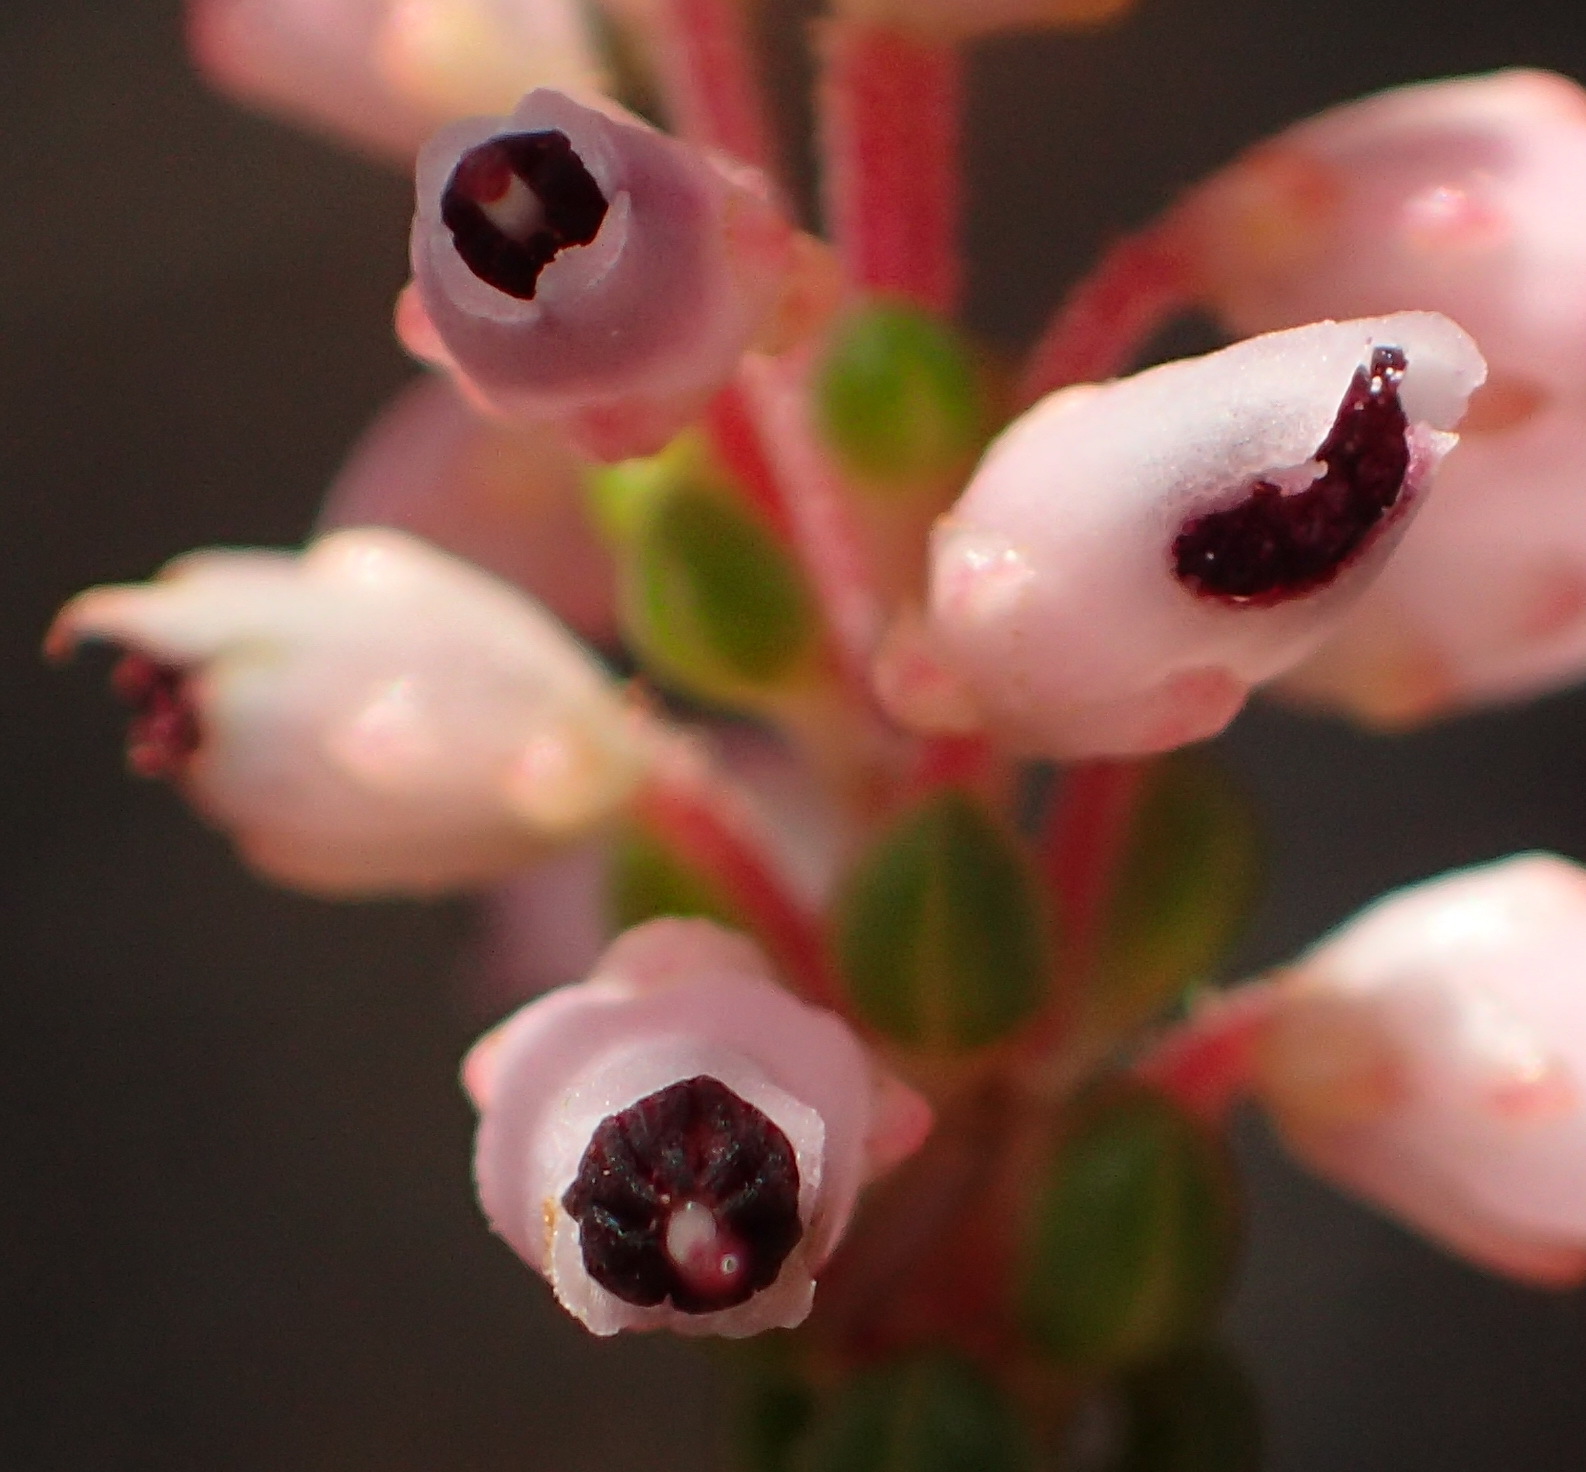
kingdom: Plantae
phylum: Tracheophyta
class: Magnoliopsida
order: Ericales
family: Ericaceae
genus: Erica
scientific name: Erica petraea
